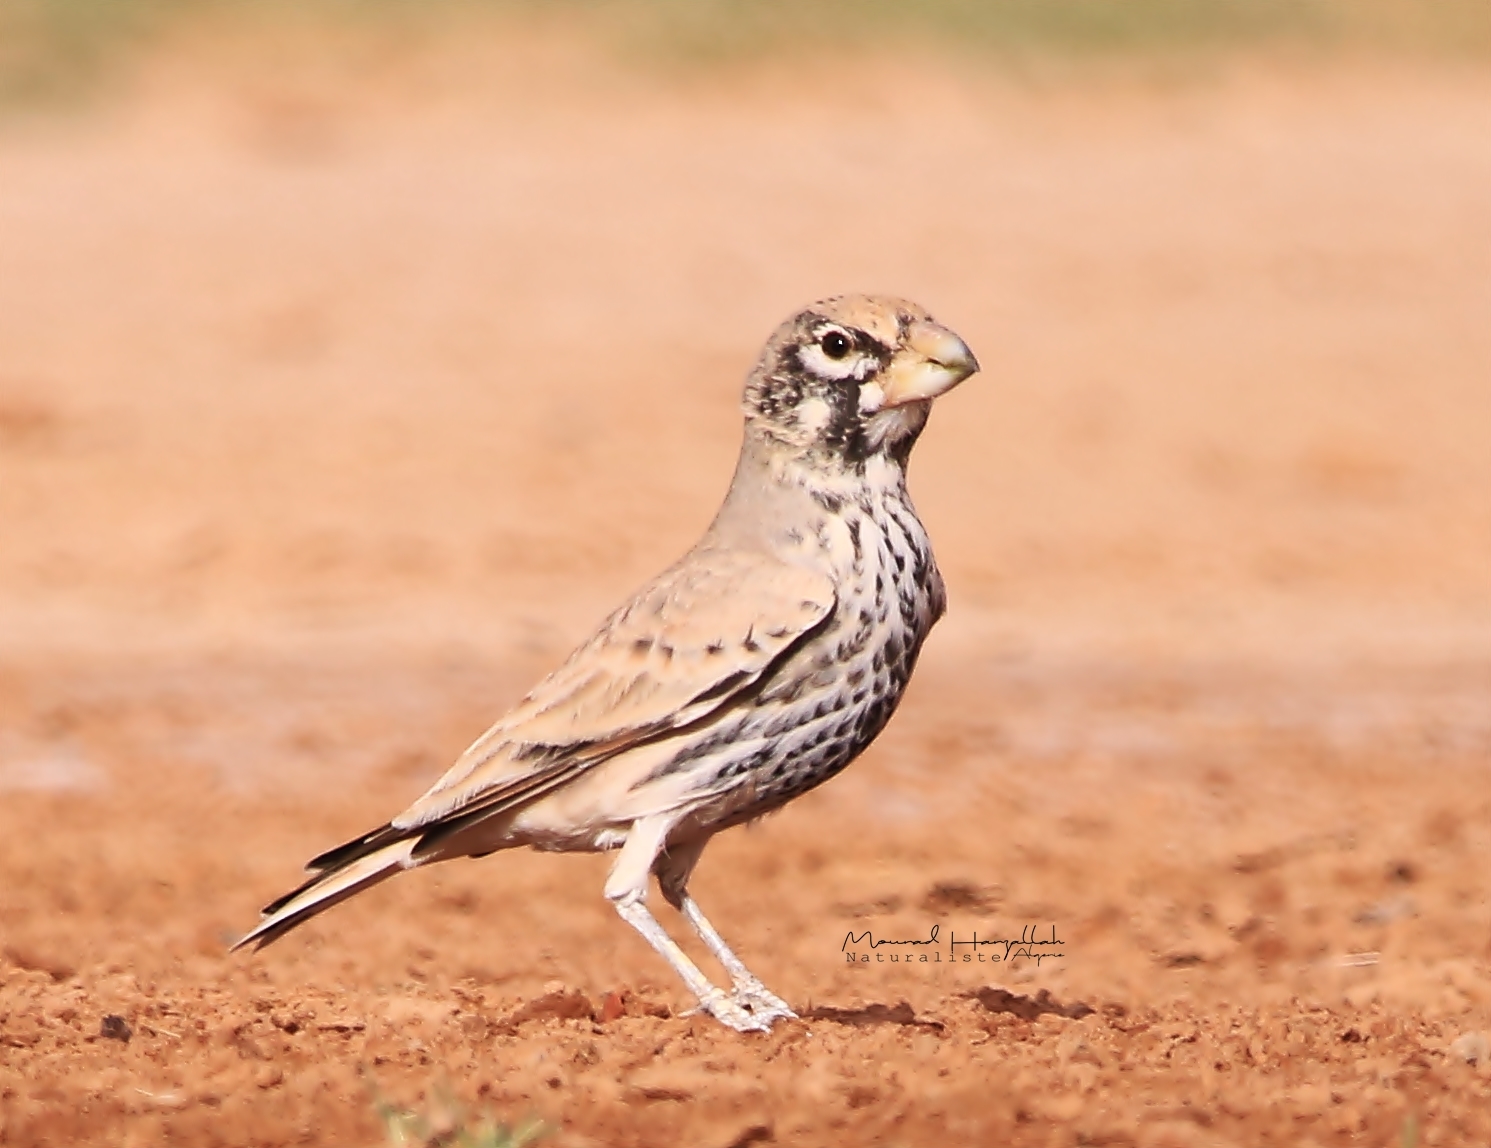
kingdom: Animalia
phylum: Chordata
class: Aves
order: Passeriformes
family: Alaudidae
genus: Ramphocoris
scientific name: Ramphocoris clotbey
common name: Thick-billed lark
